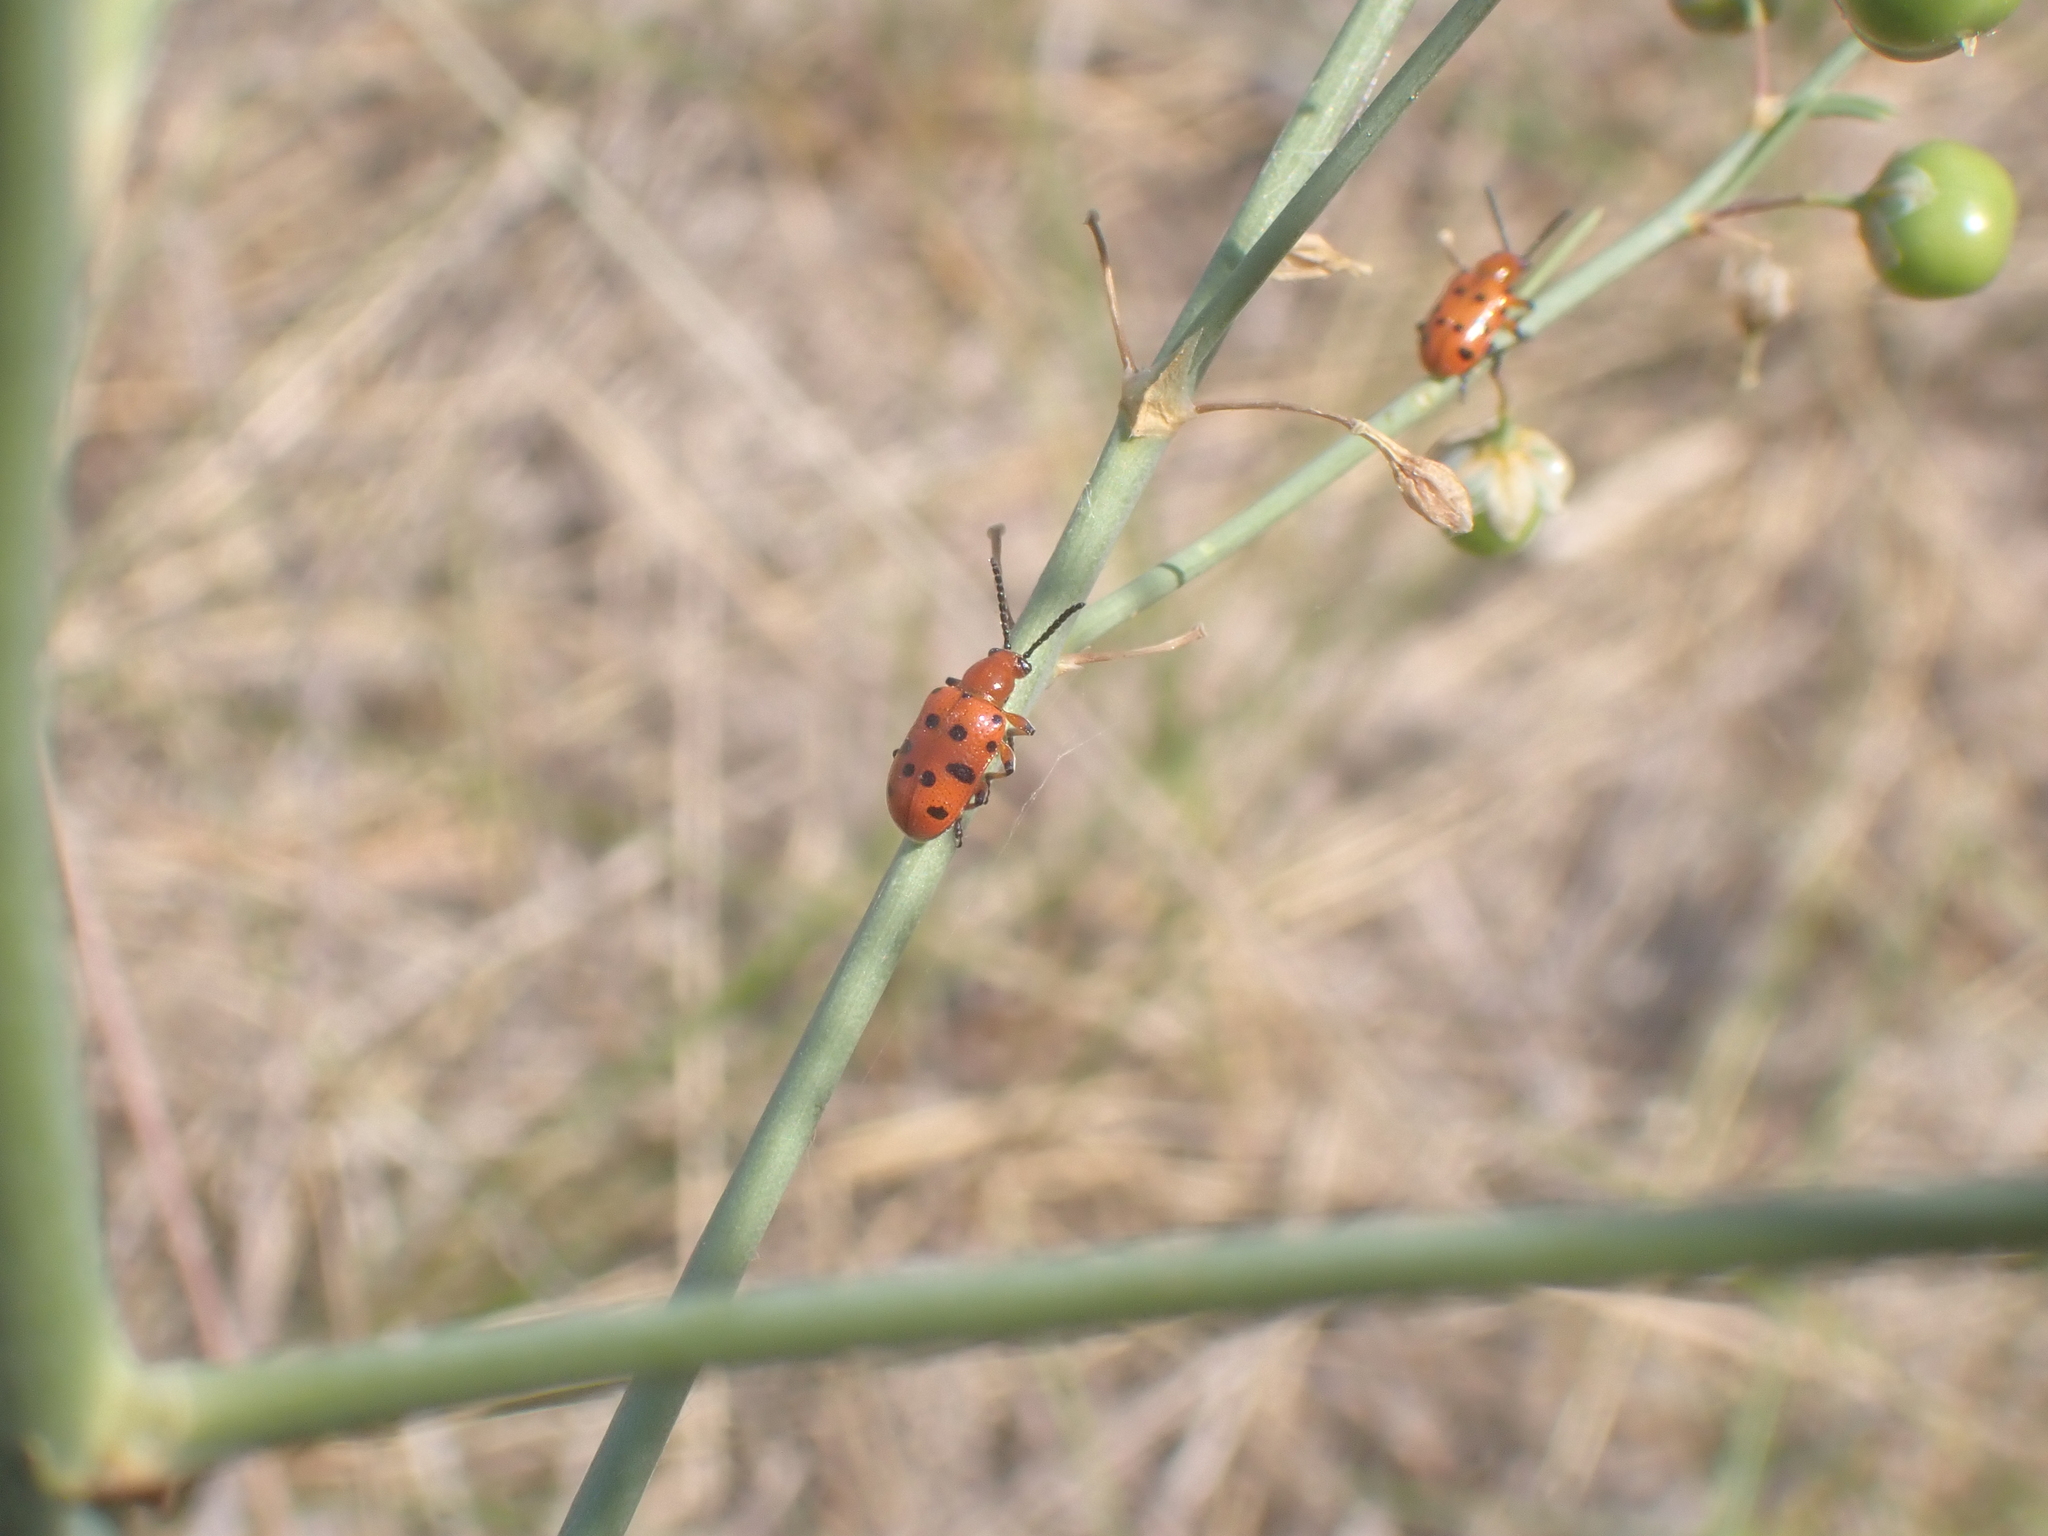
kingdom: Animalia
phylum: Arthropoda
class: Insecta
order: Coleoptera
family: Chrysomelidae
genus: Crioceris
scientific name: Crioceris duodecimpunctata
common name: Twelve-spotted asparagus beetle
